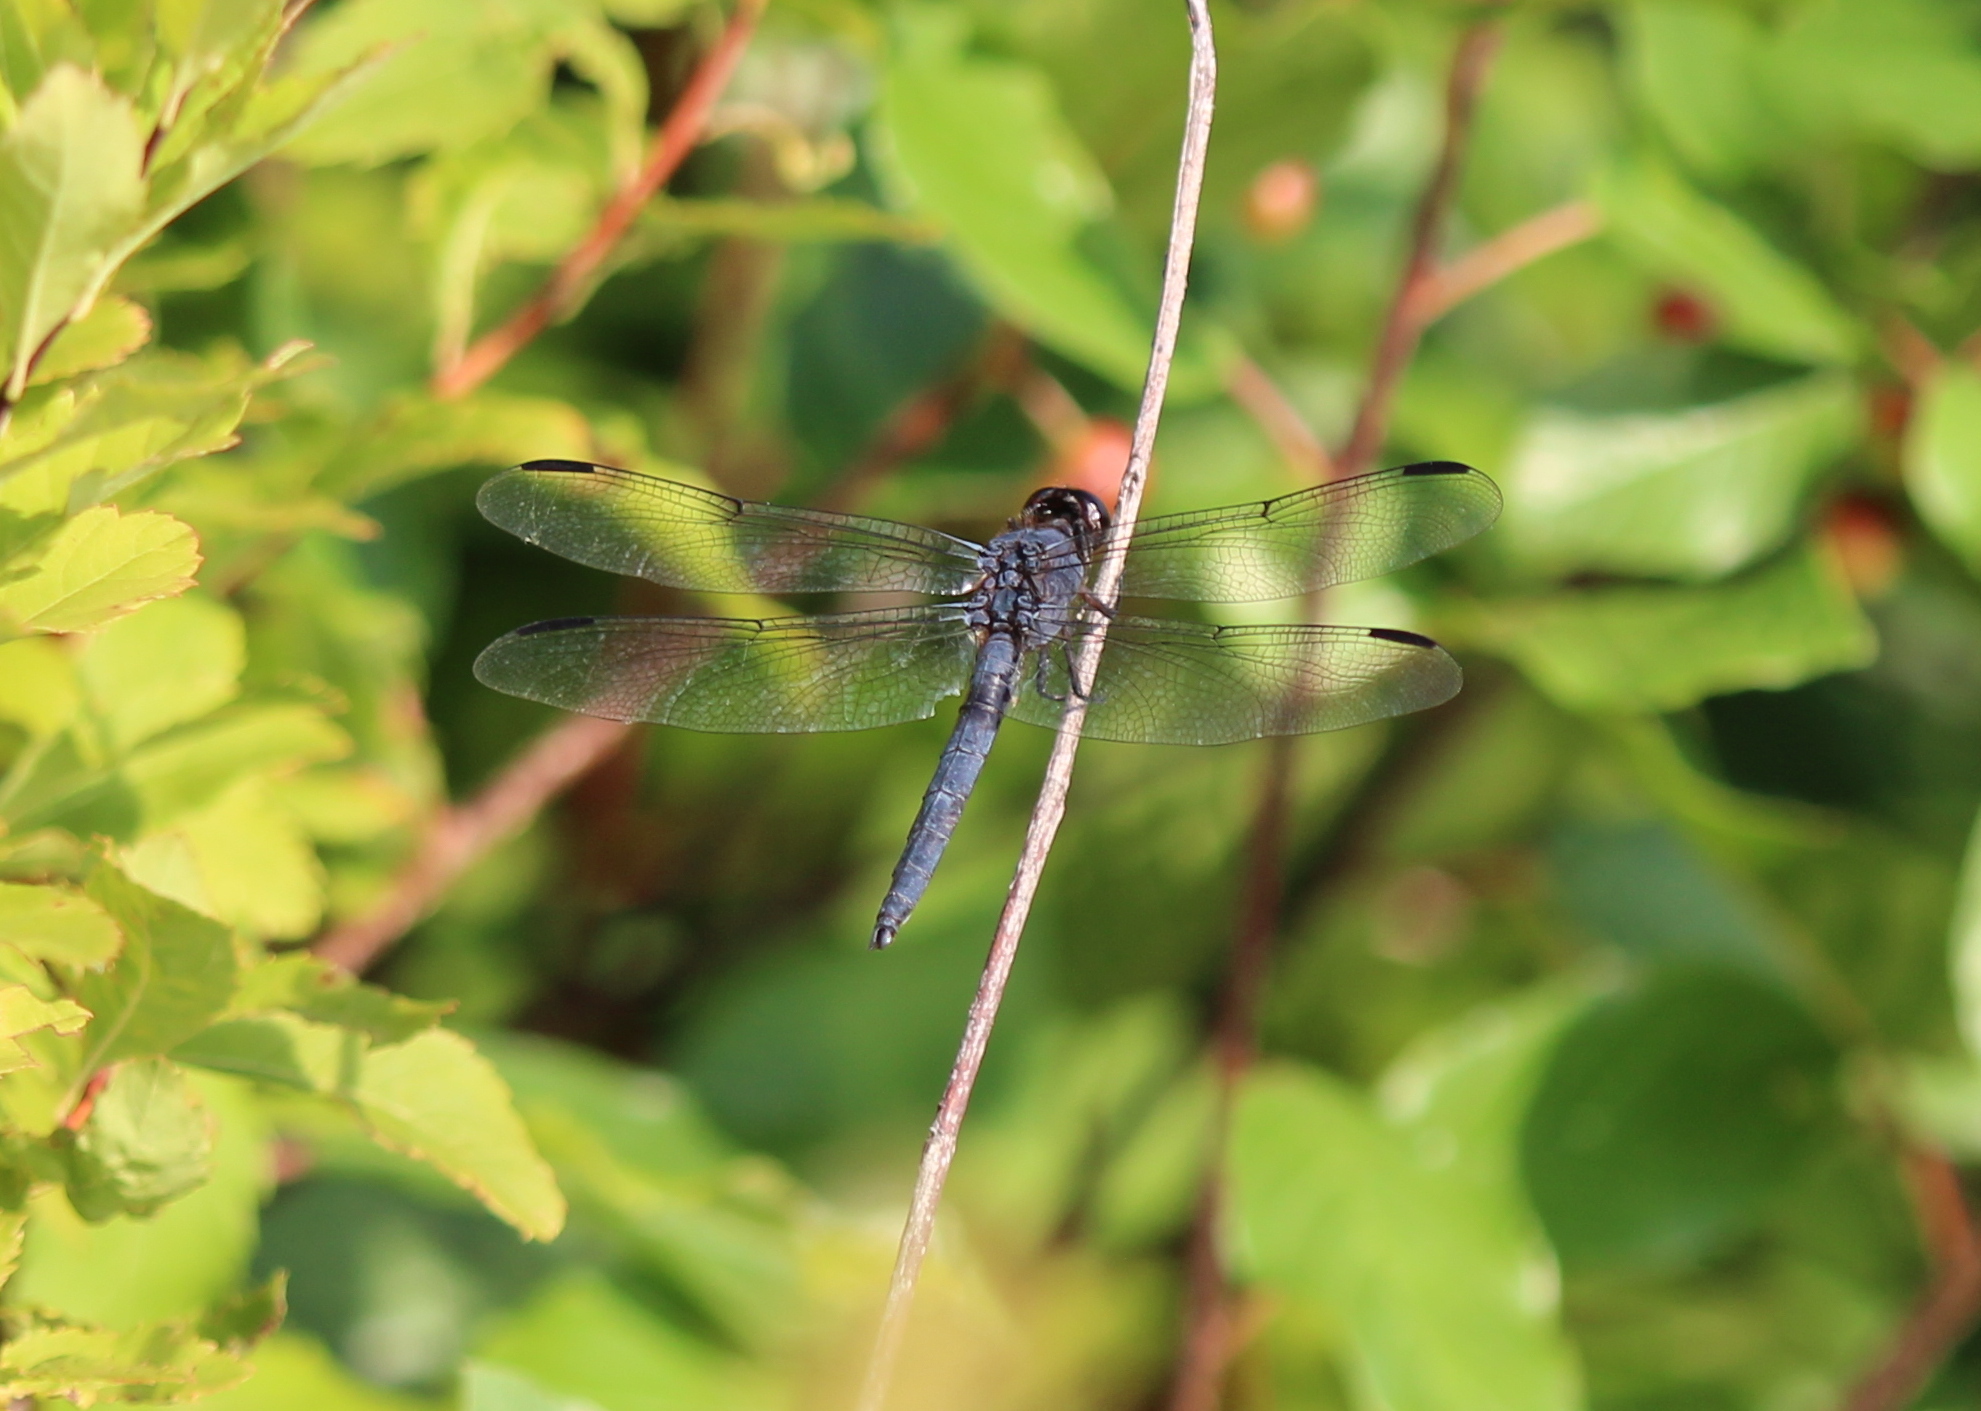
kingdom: Animalia
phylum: Arthropoda
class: Insecta
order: Odonata
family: Libellulidae
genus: Libellula
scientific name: Libellula incesta
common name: Slaty skimmer
